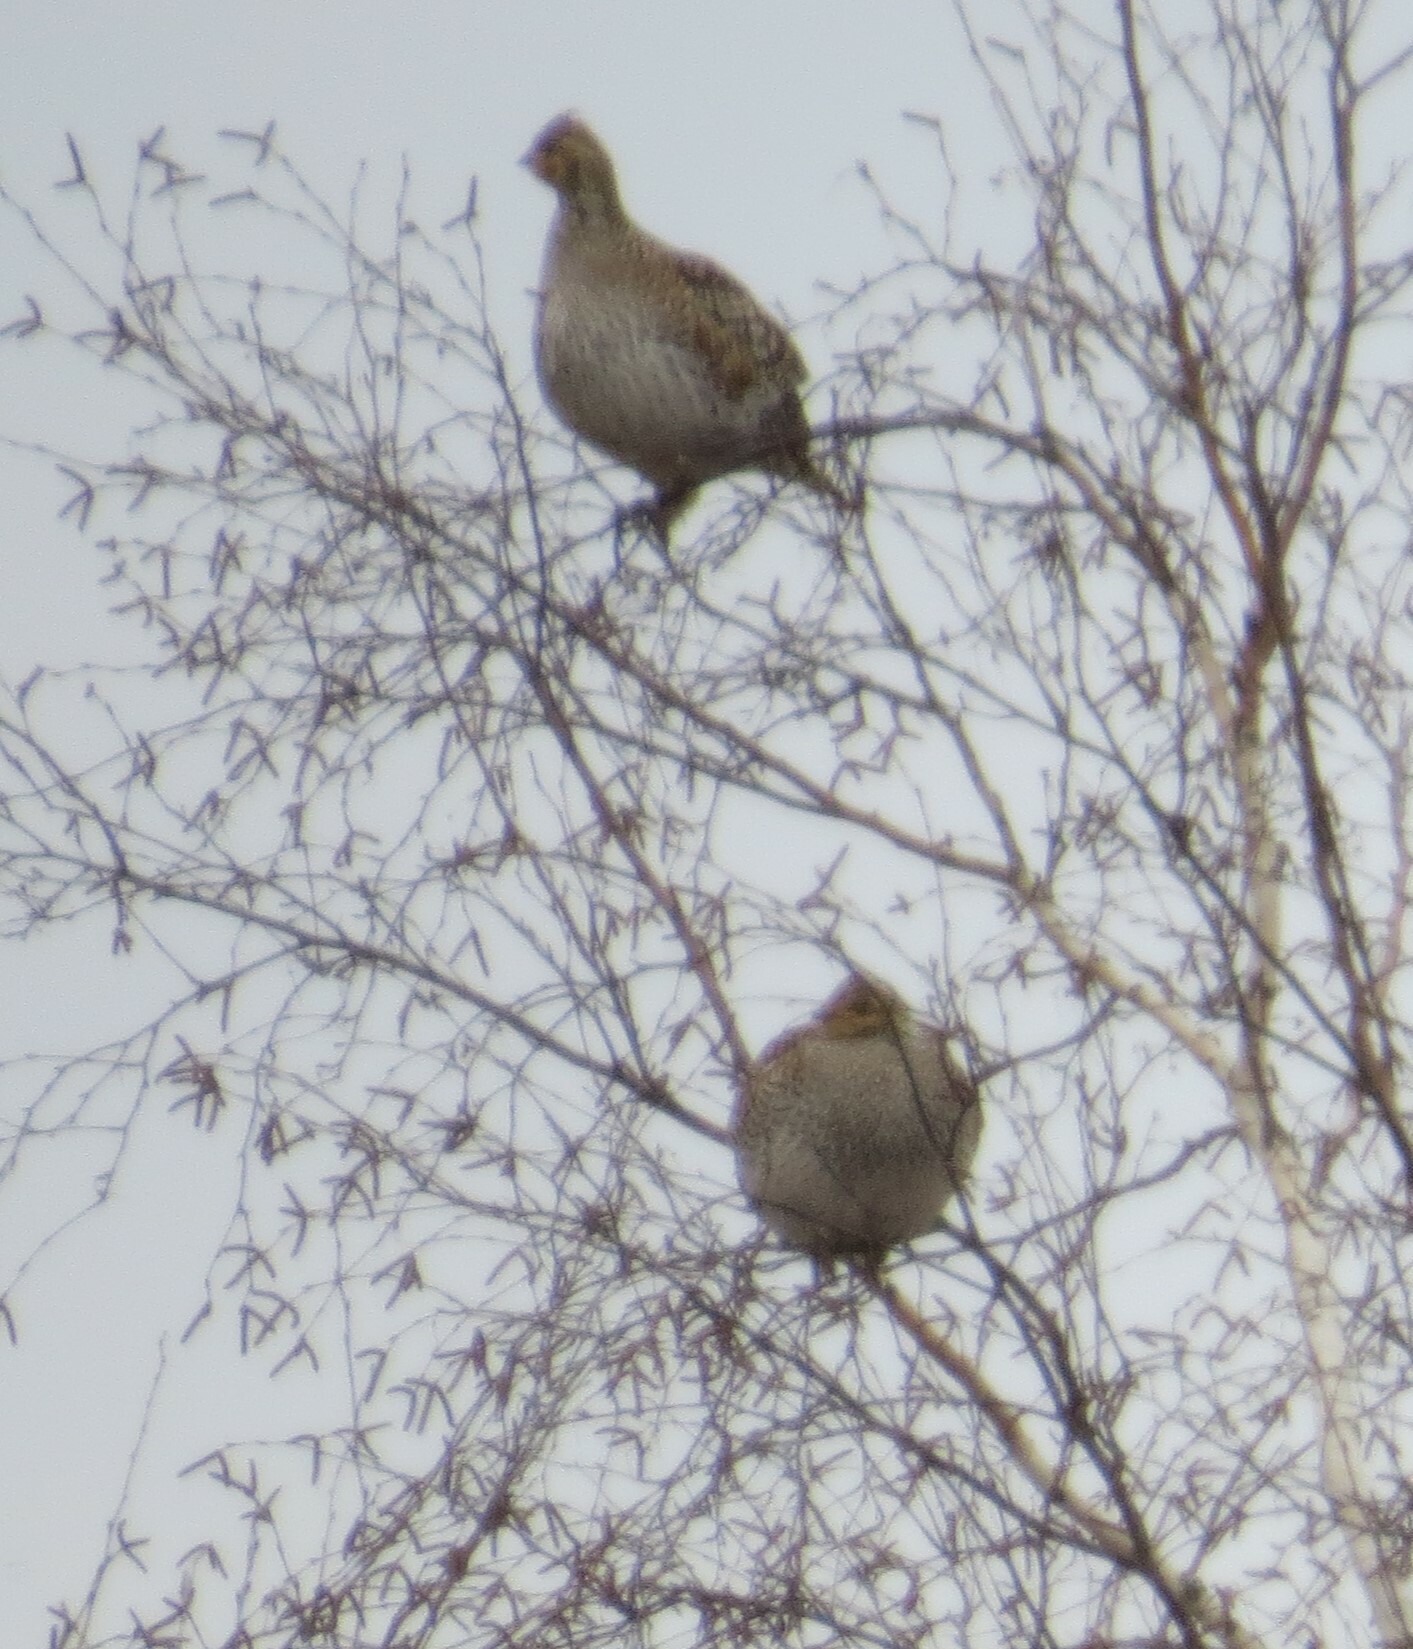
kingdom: Animalia
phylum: Chordata
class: Aves
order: Galliformes
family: Phasianidae
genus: Tympanuchus
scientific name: Tympanuchus phasianellus
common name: Sharp-tailed grouse
